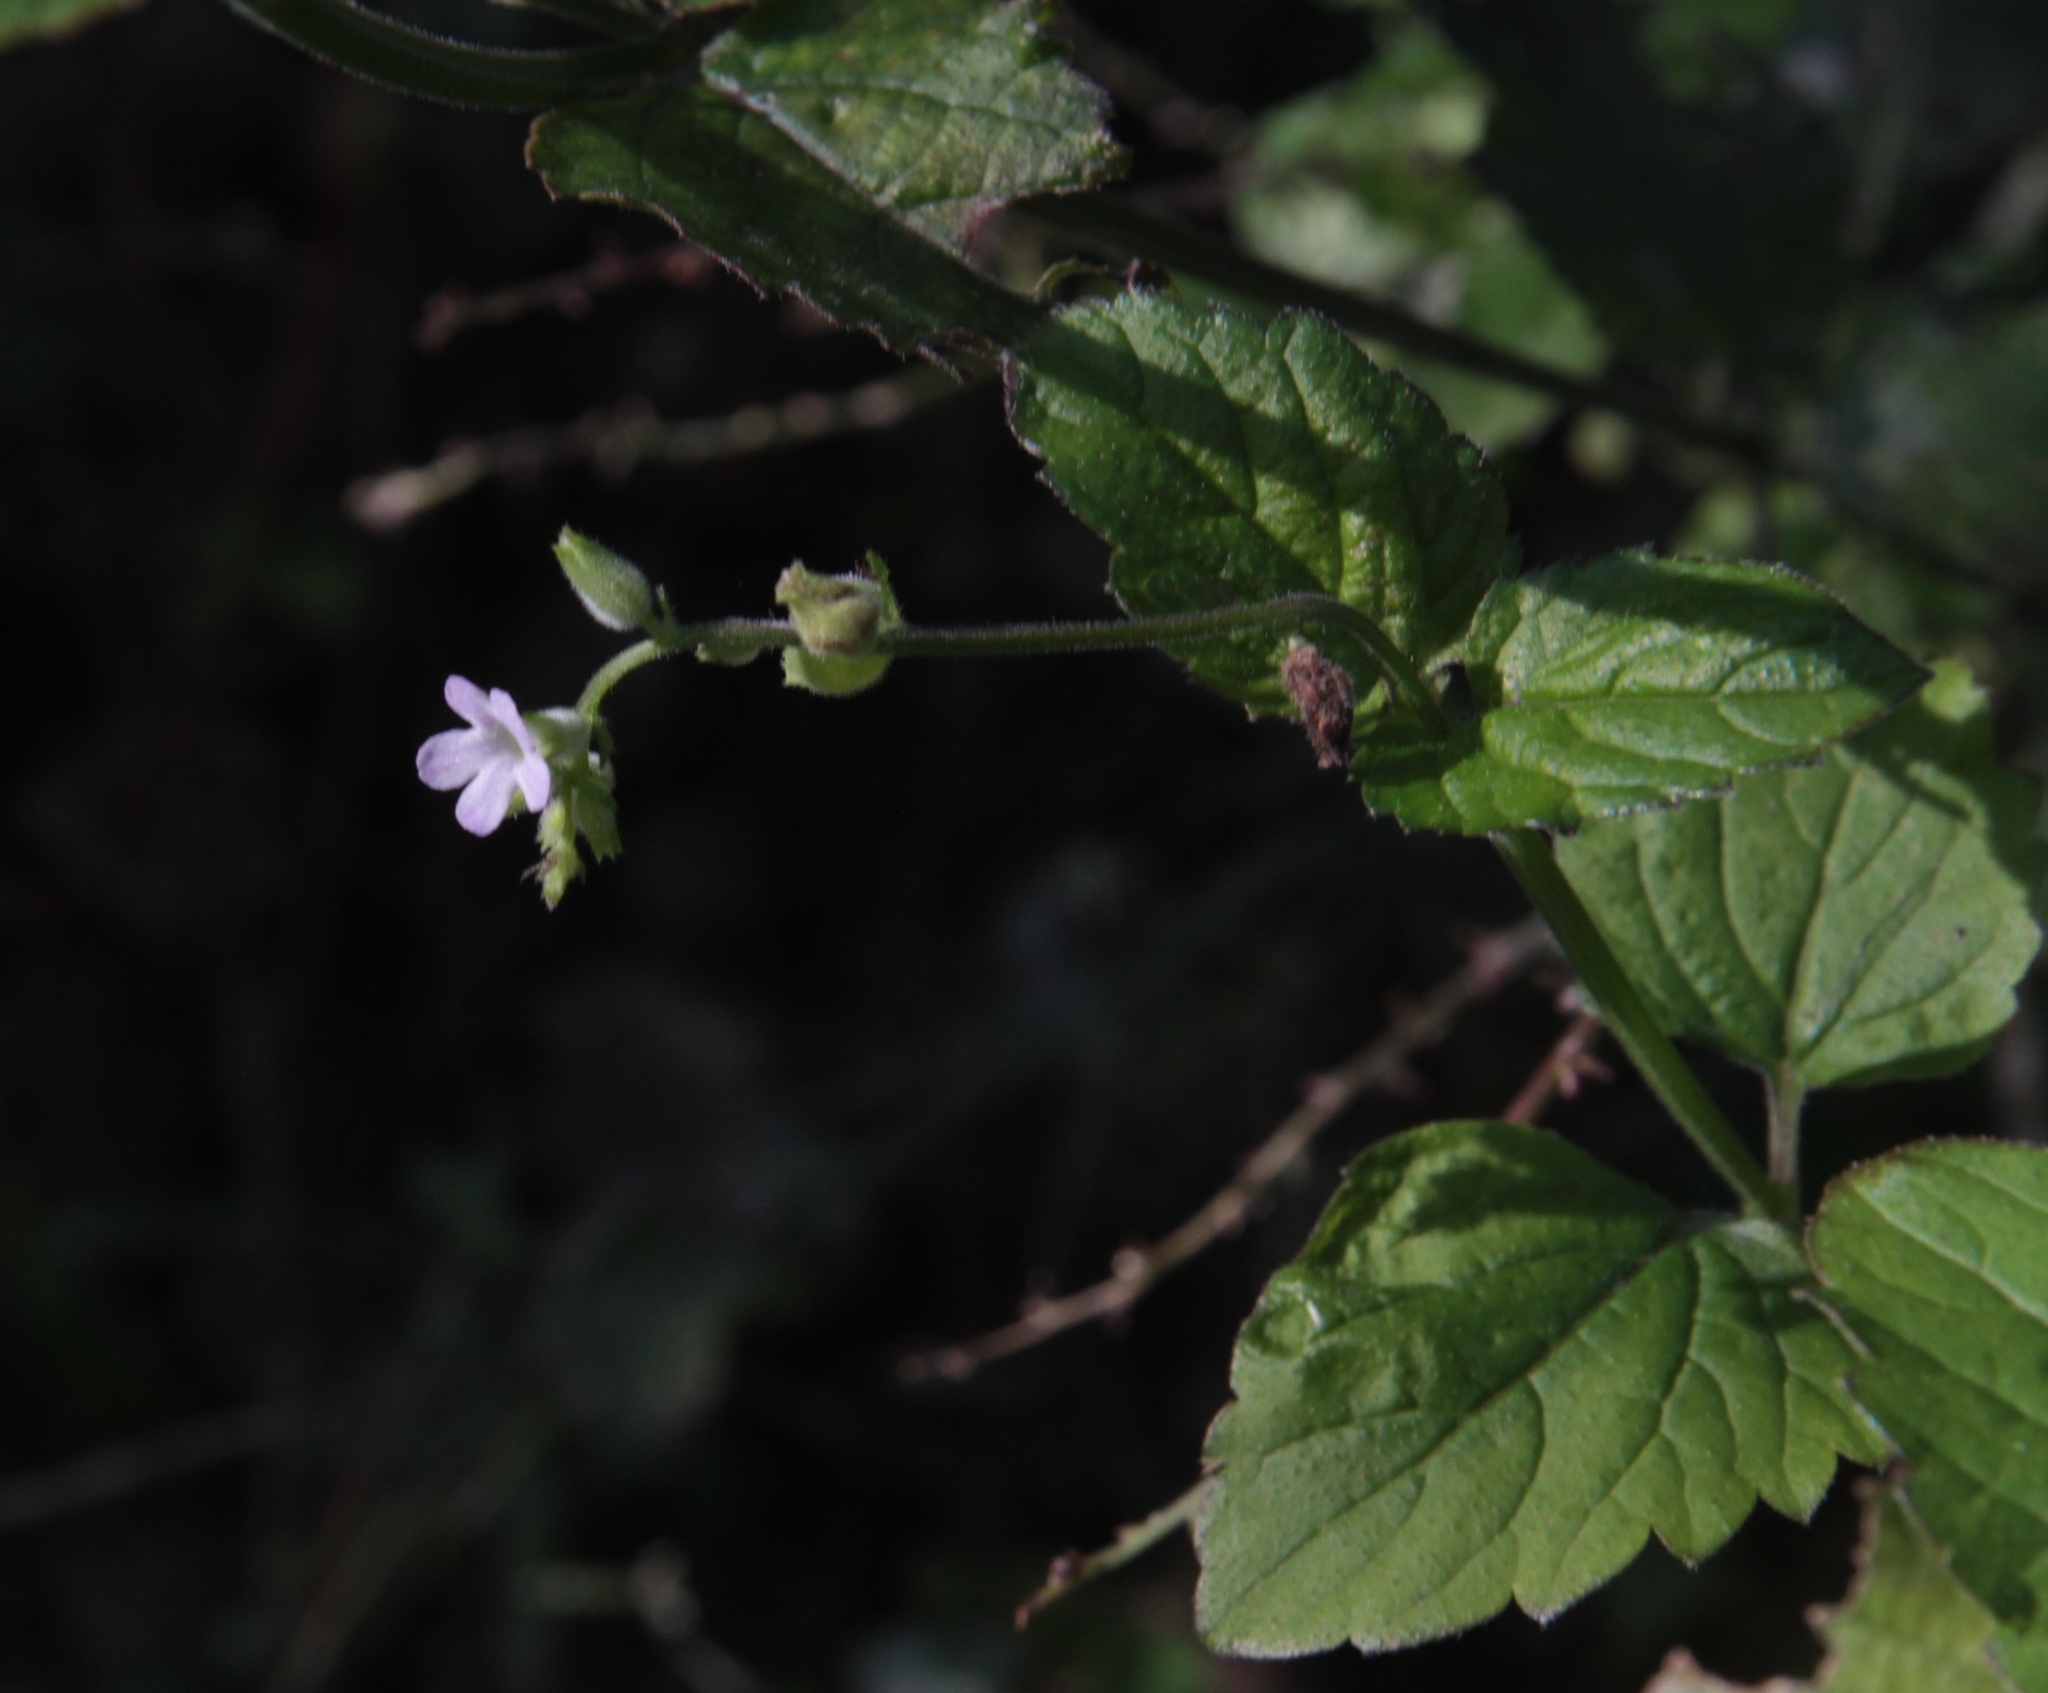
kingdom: Plantae
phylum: Tracheophyta
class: Magnoliopsida
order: Lamiales
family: Verbenaceae
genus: Priva
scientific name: Priva lappulacea
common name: Fasten-'pon-coat
